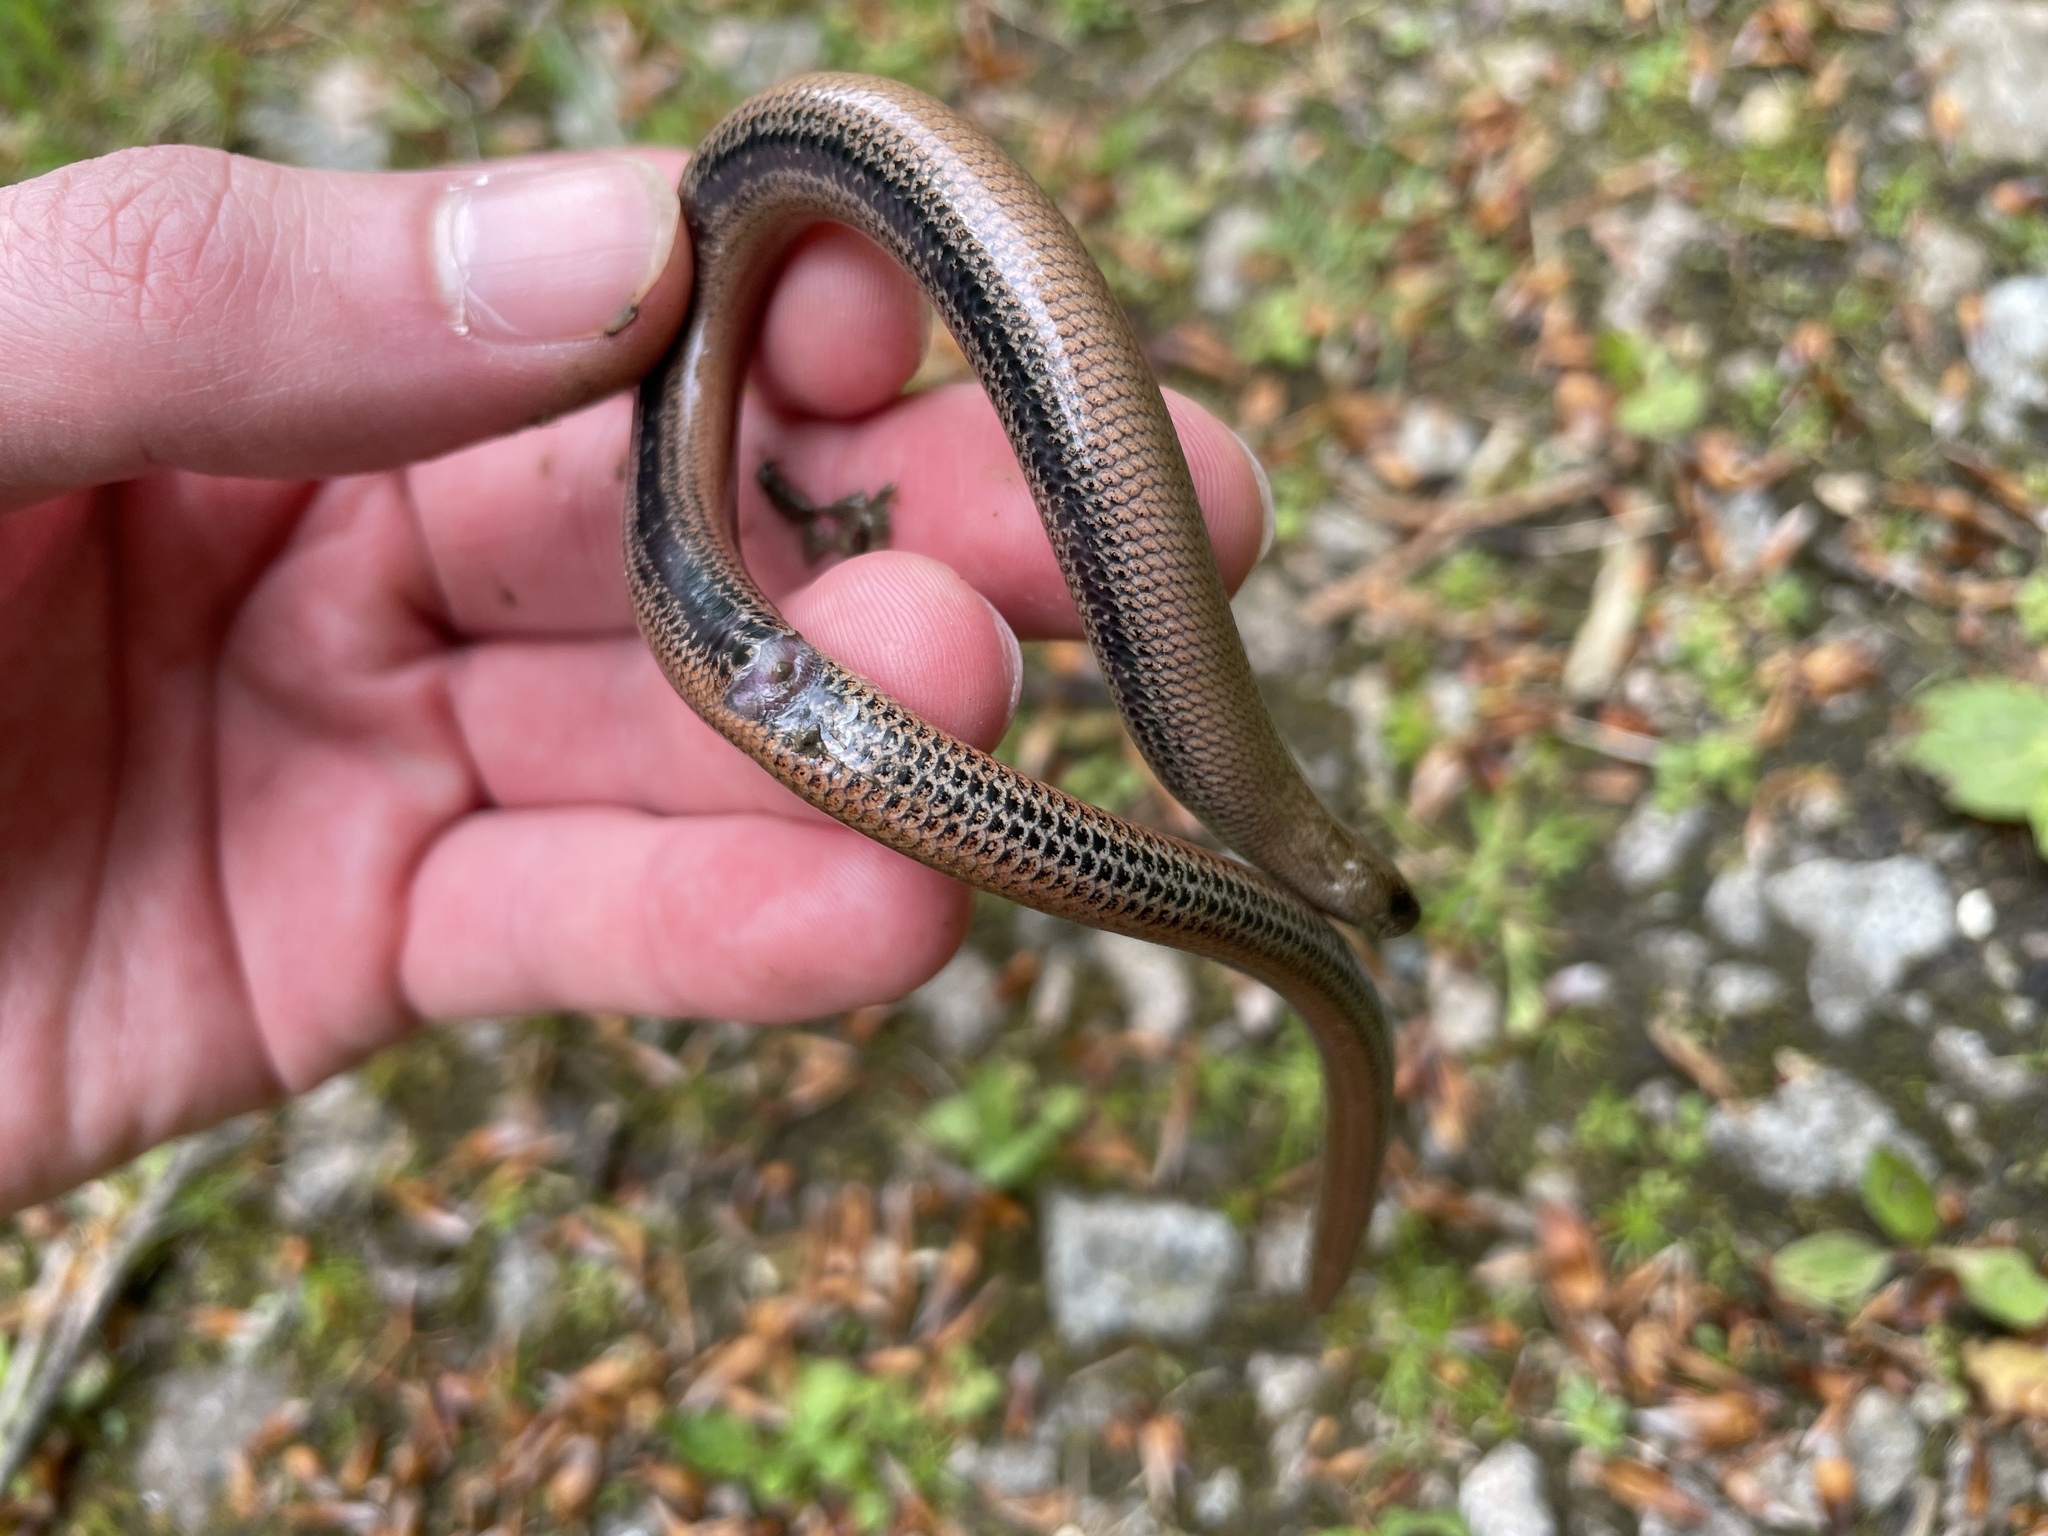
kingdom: Animalia
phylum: Chordata
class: Squamata
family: Anguidae
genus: Anguis
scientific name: Anguis fragilis
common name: Slow worm
